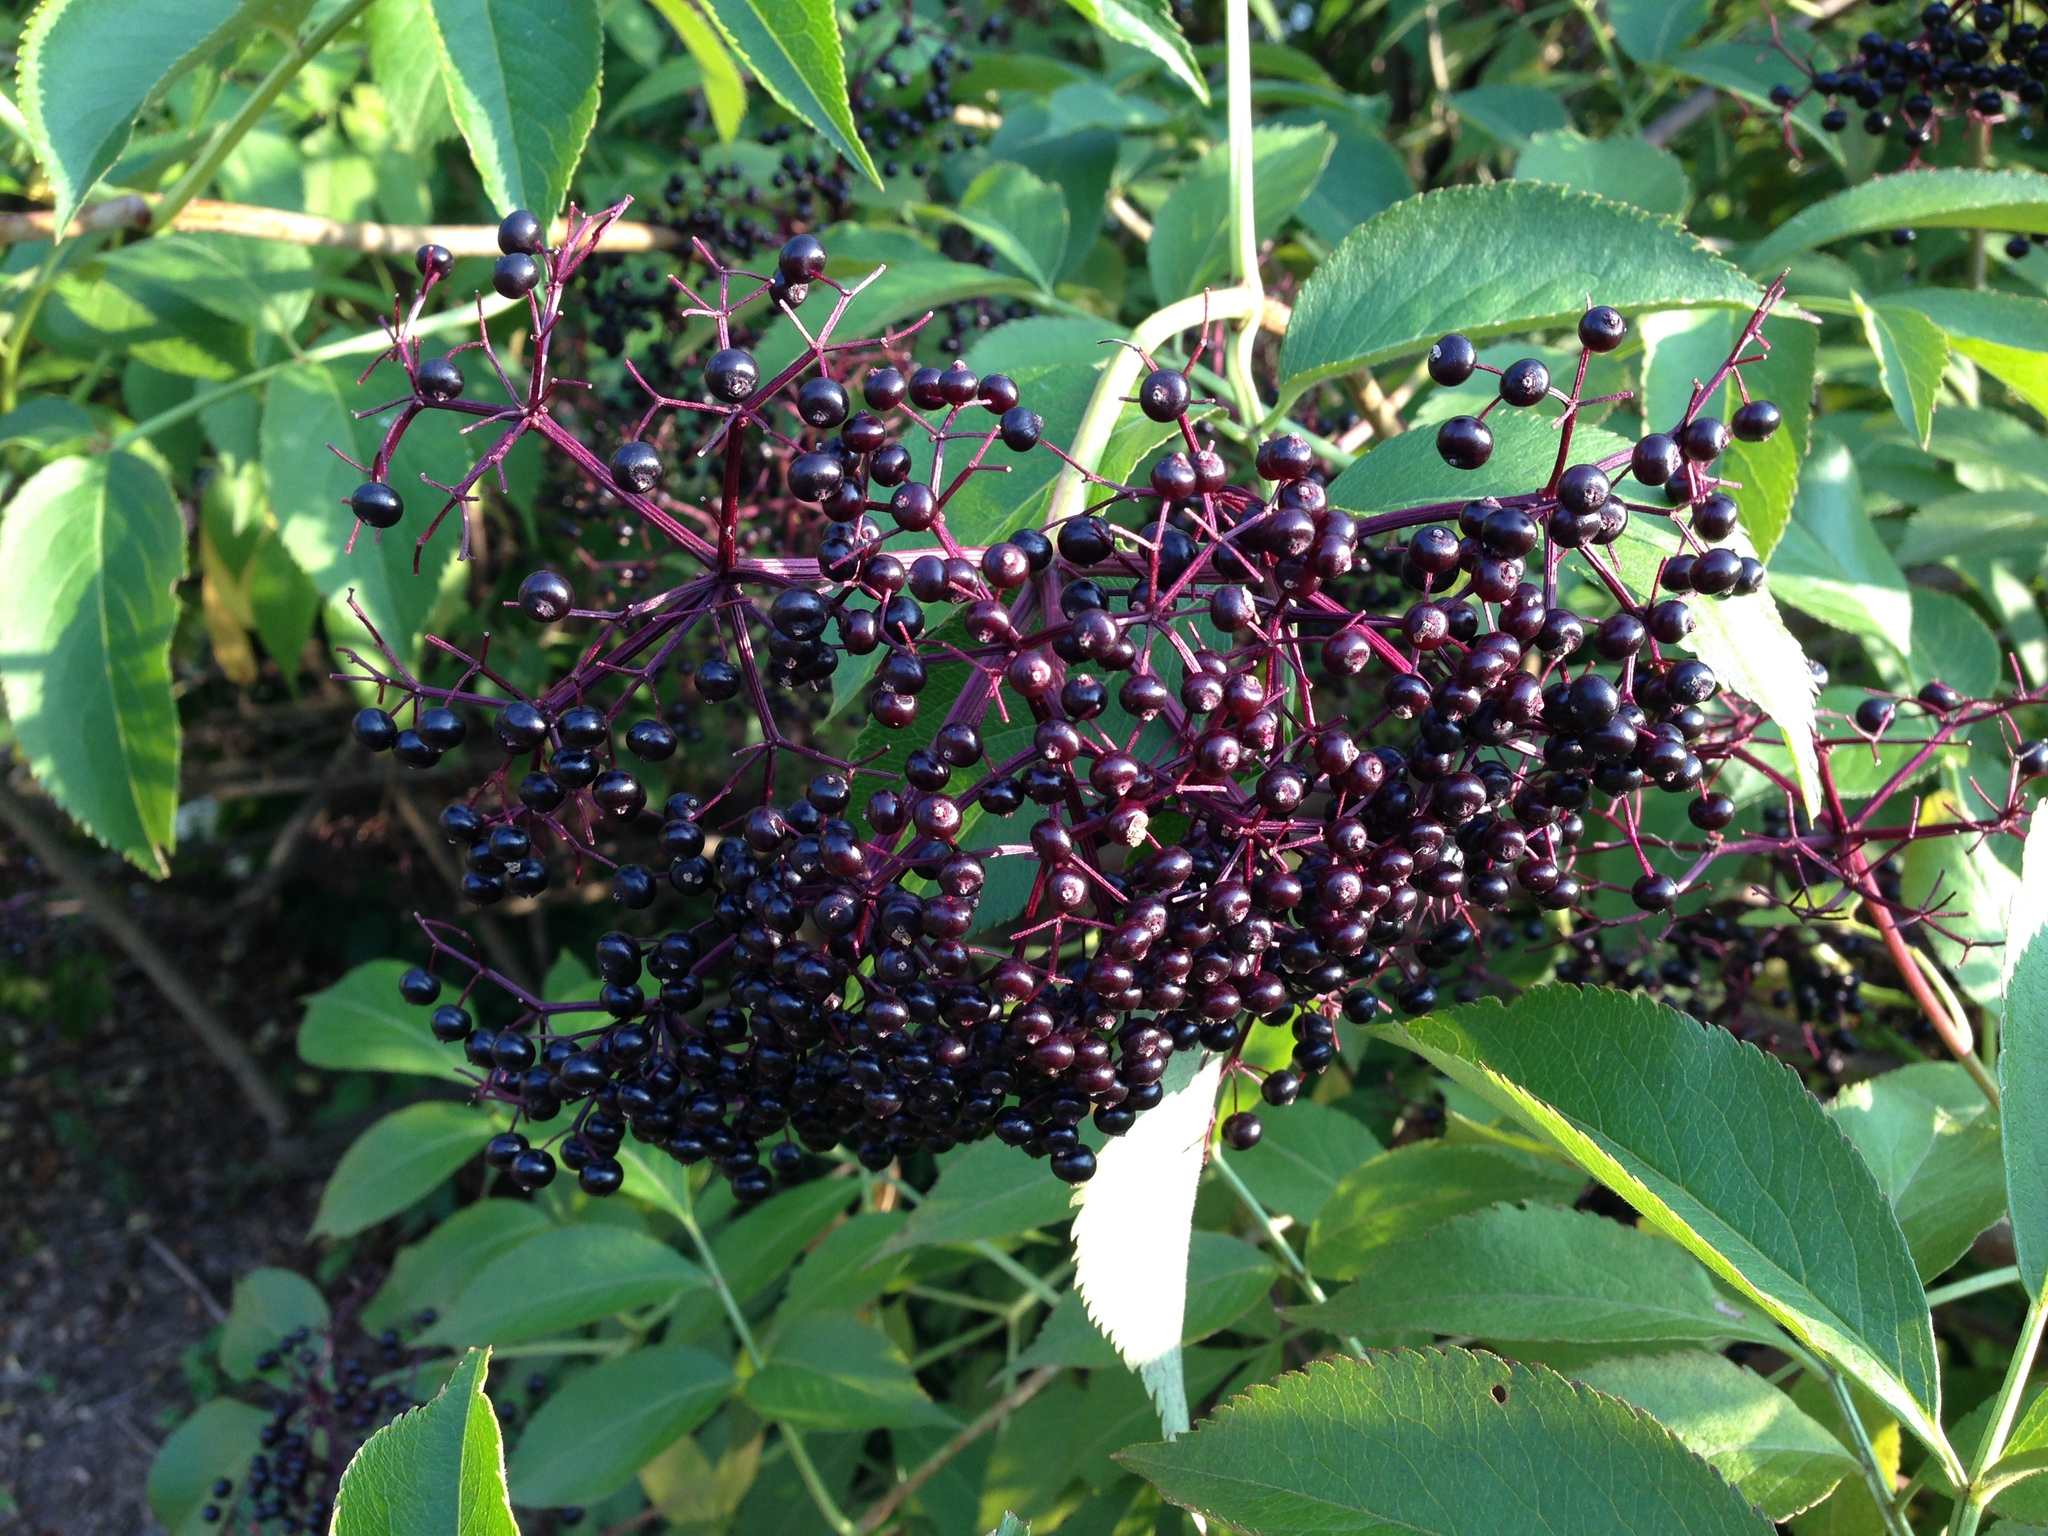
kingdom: Plantae
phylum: Tracheophyta
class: Magnoliopsida
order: Dipsacales
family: Viburnaceae
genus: Sambucus
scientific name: Sambucus canadensis
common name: American elder
